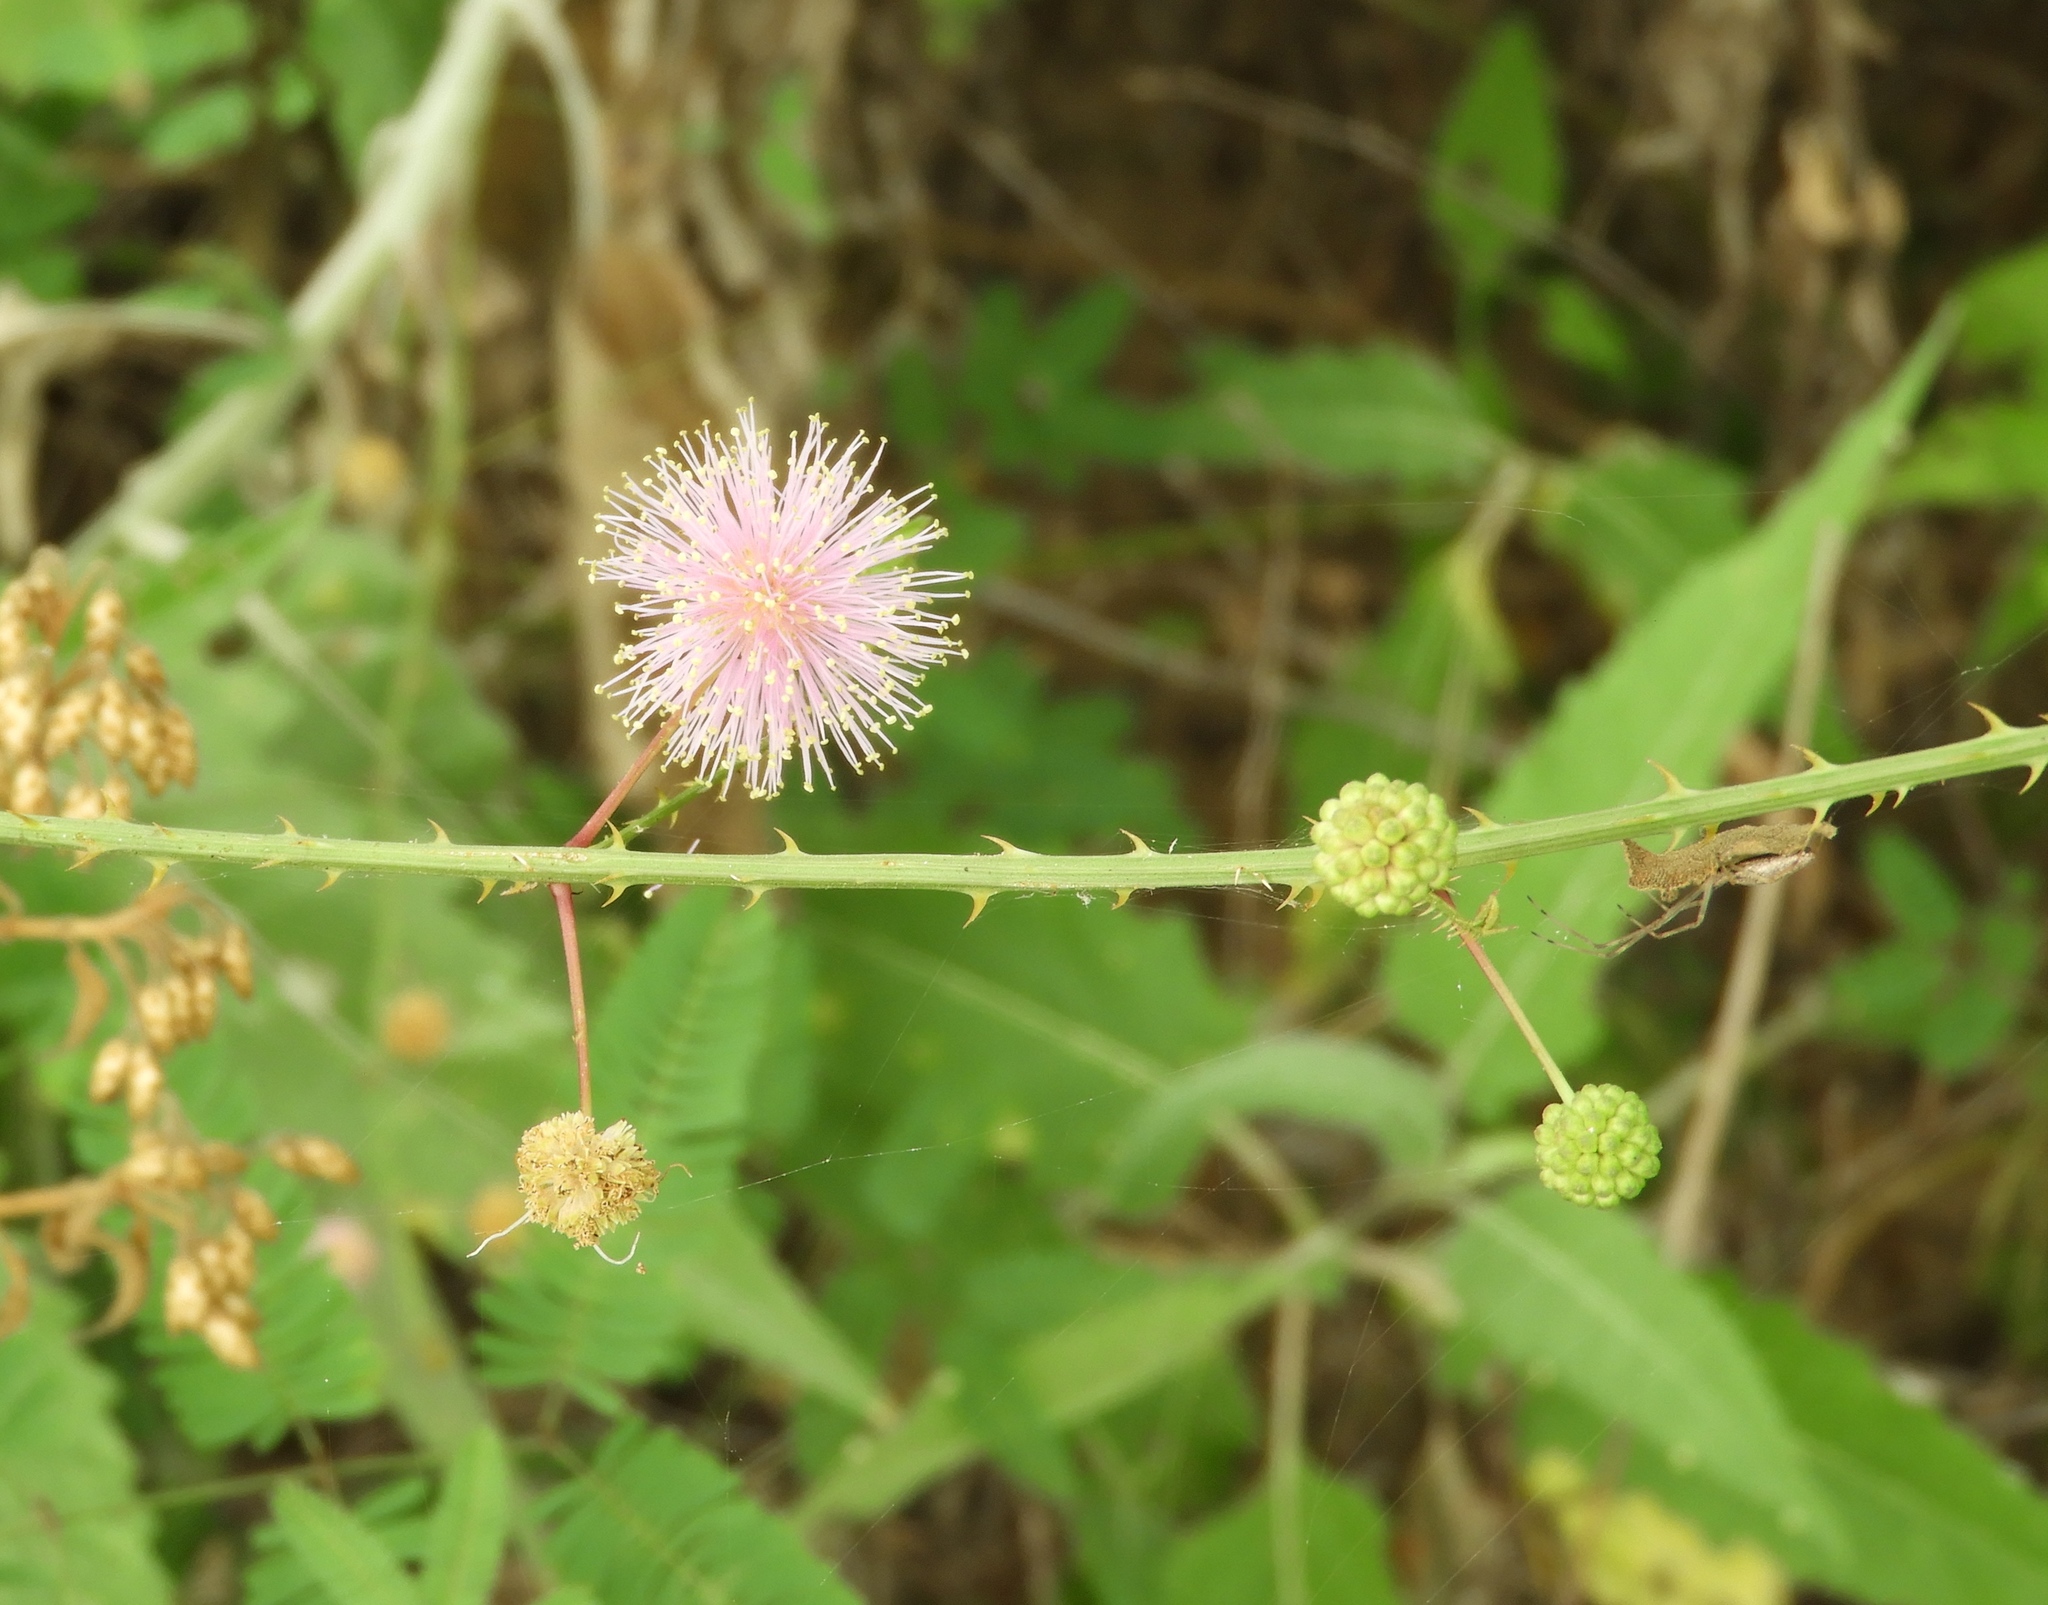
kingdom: Plantae
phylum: Tracheophyta
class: Magnoliopsida
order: Fabales
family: Fabaceae
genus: Mimosa
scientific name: Mimosa quadrivalvis
